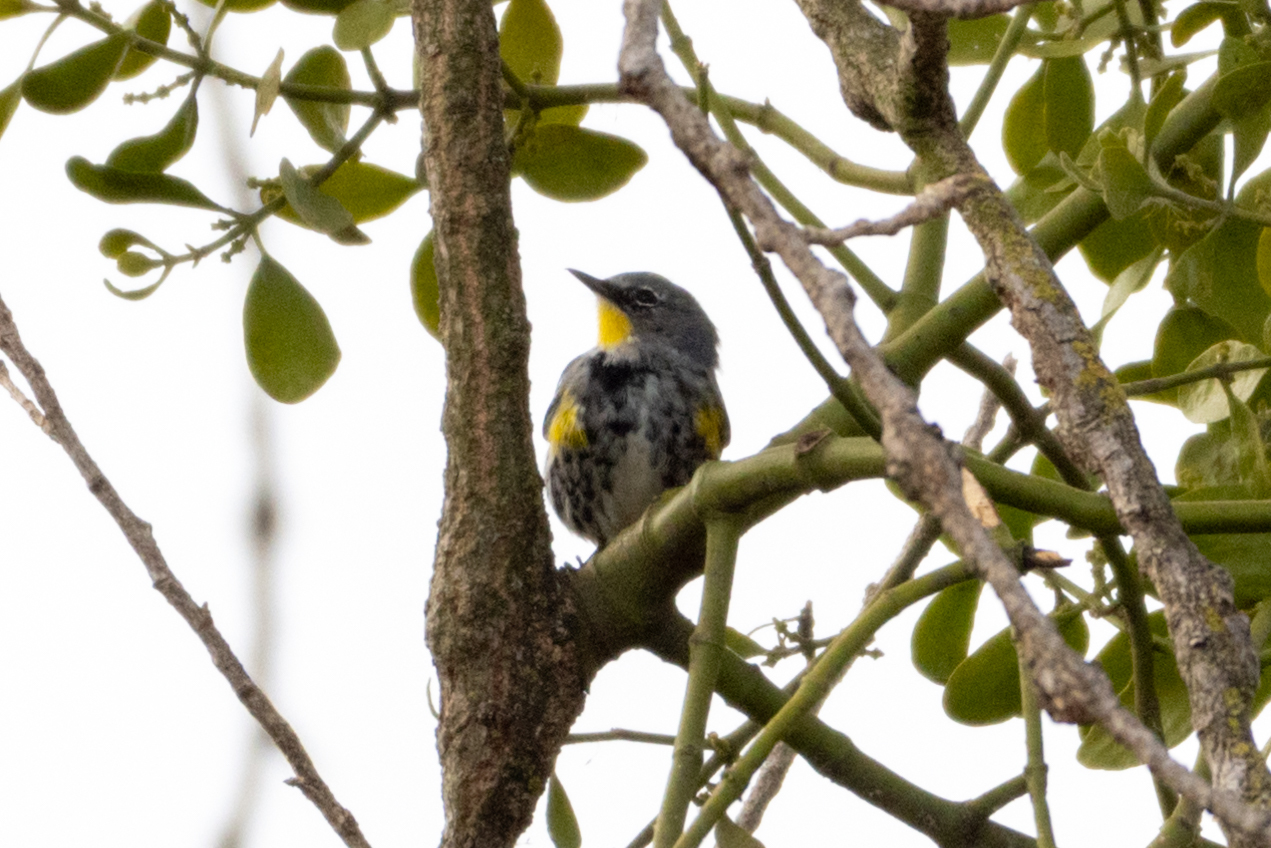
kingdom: Animalia
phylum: Chordata
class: Aves
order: Passeriformes
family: Parulidae
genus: Setophaga
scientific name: Setophaga coronata
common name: Myrtle warbler
